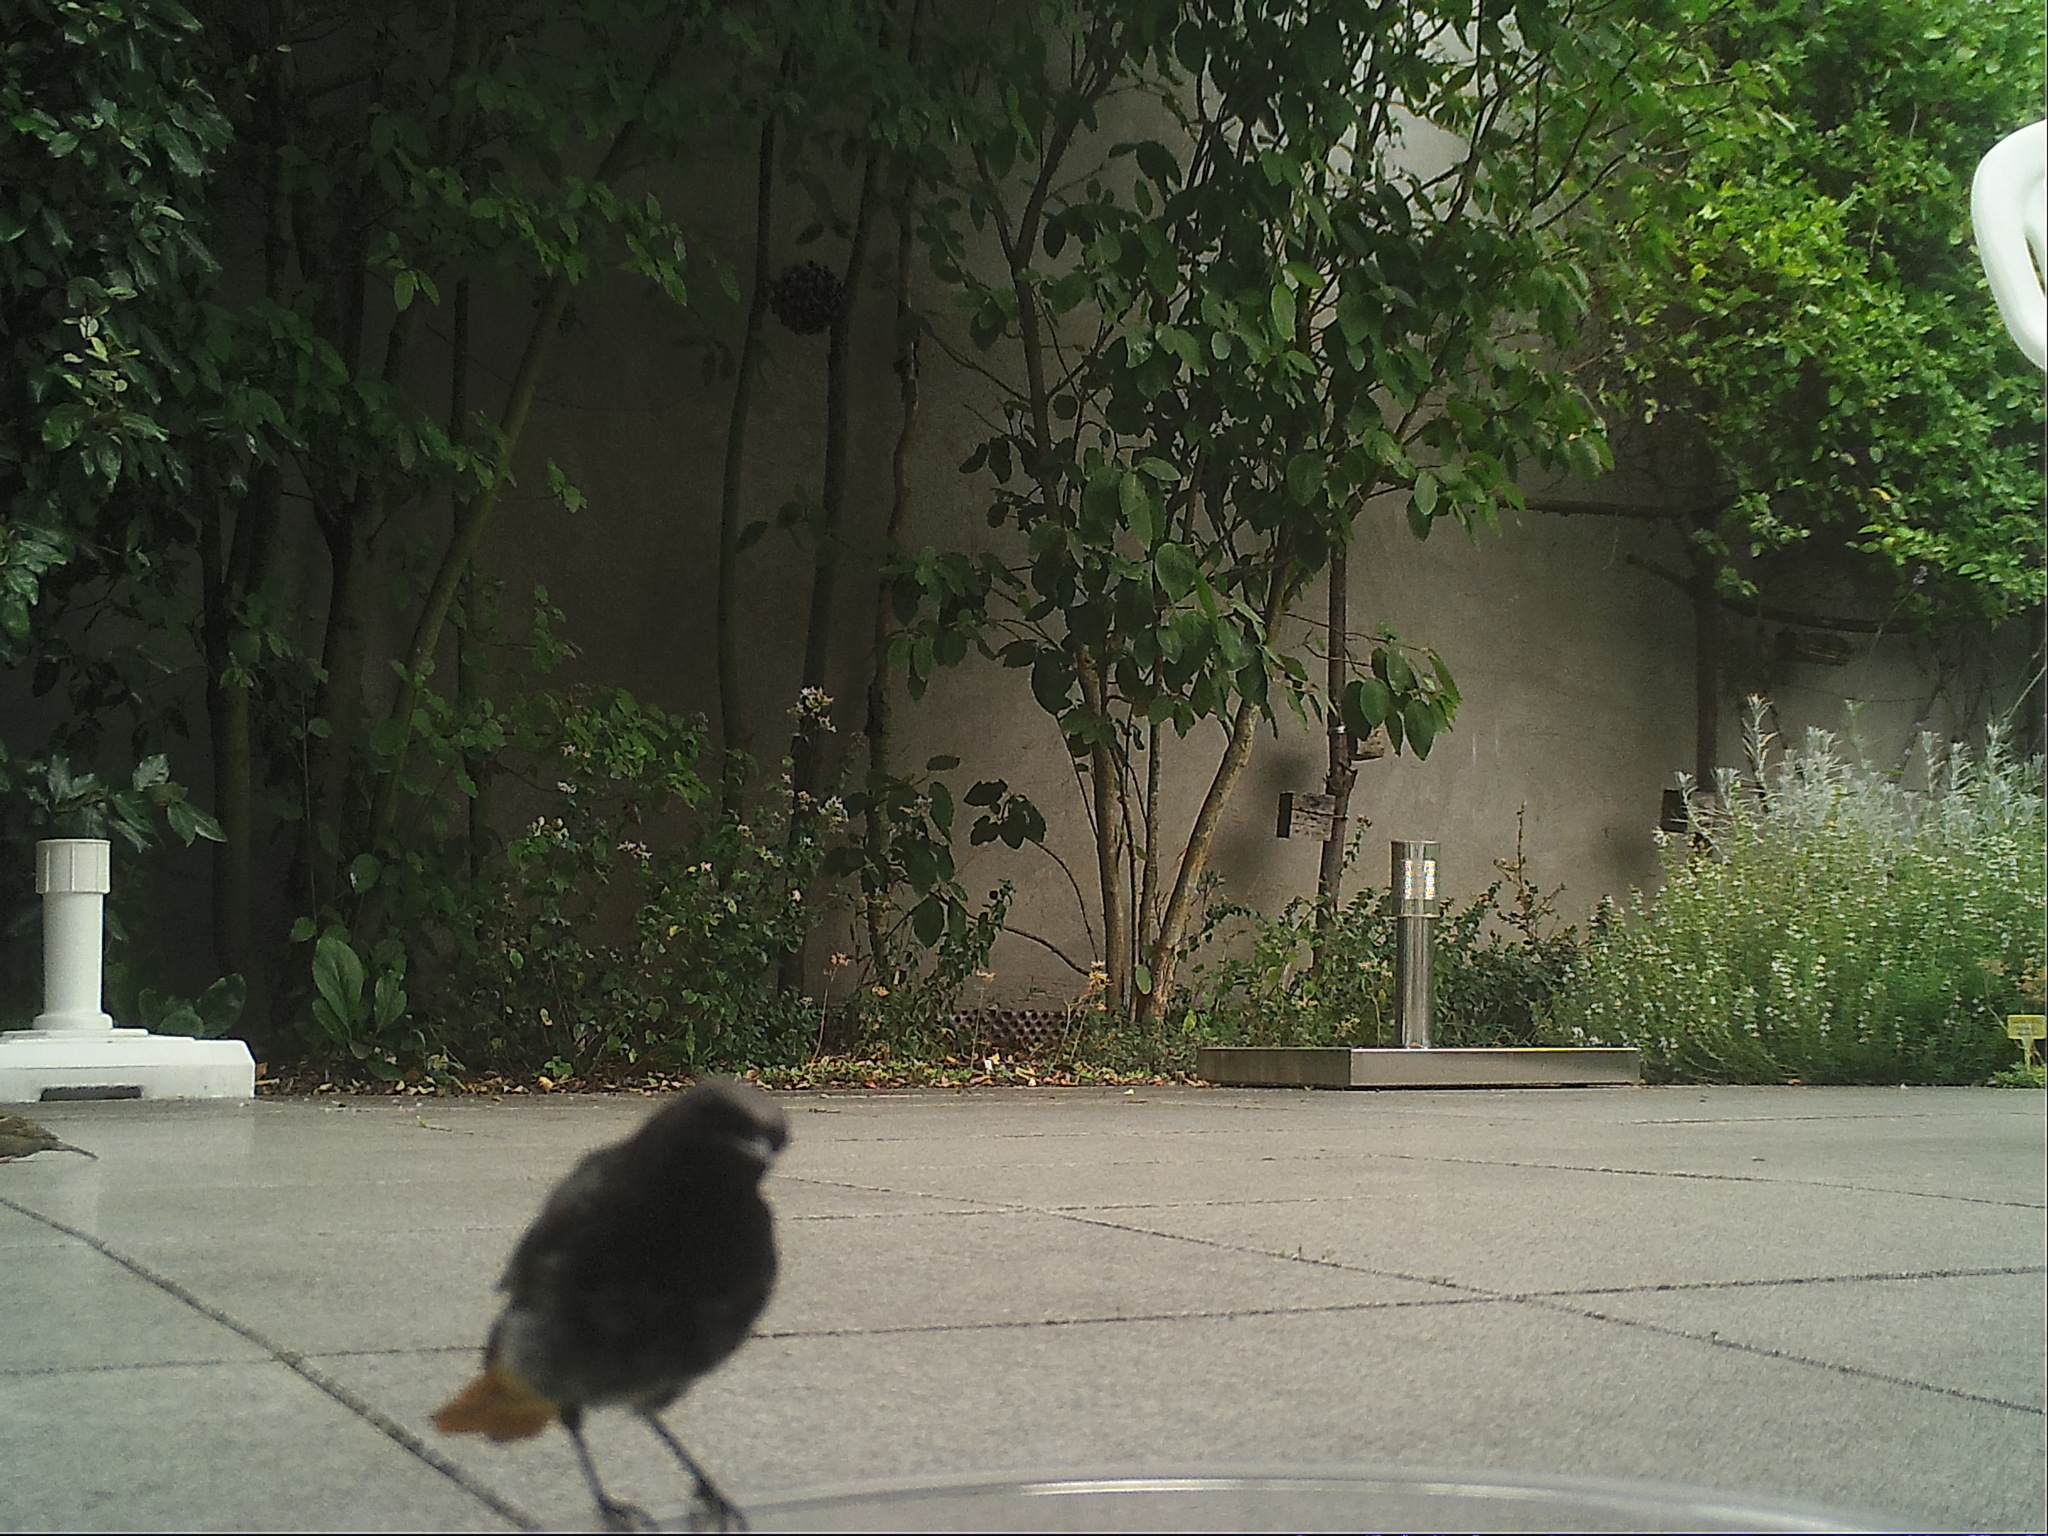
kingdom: Animalia
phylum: Chordata
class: Aves
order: Passeriformes
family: Muscicapidae
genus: Phoenicurus
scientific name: Phoenicurus ochruros
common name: Black redstart
